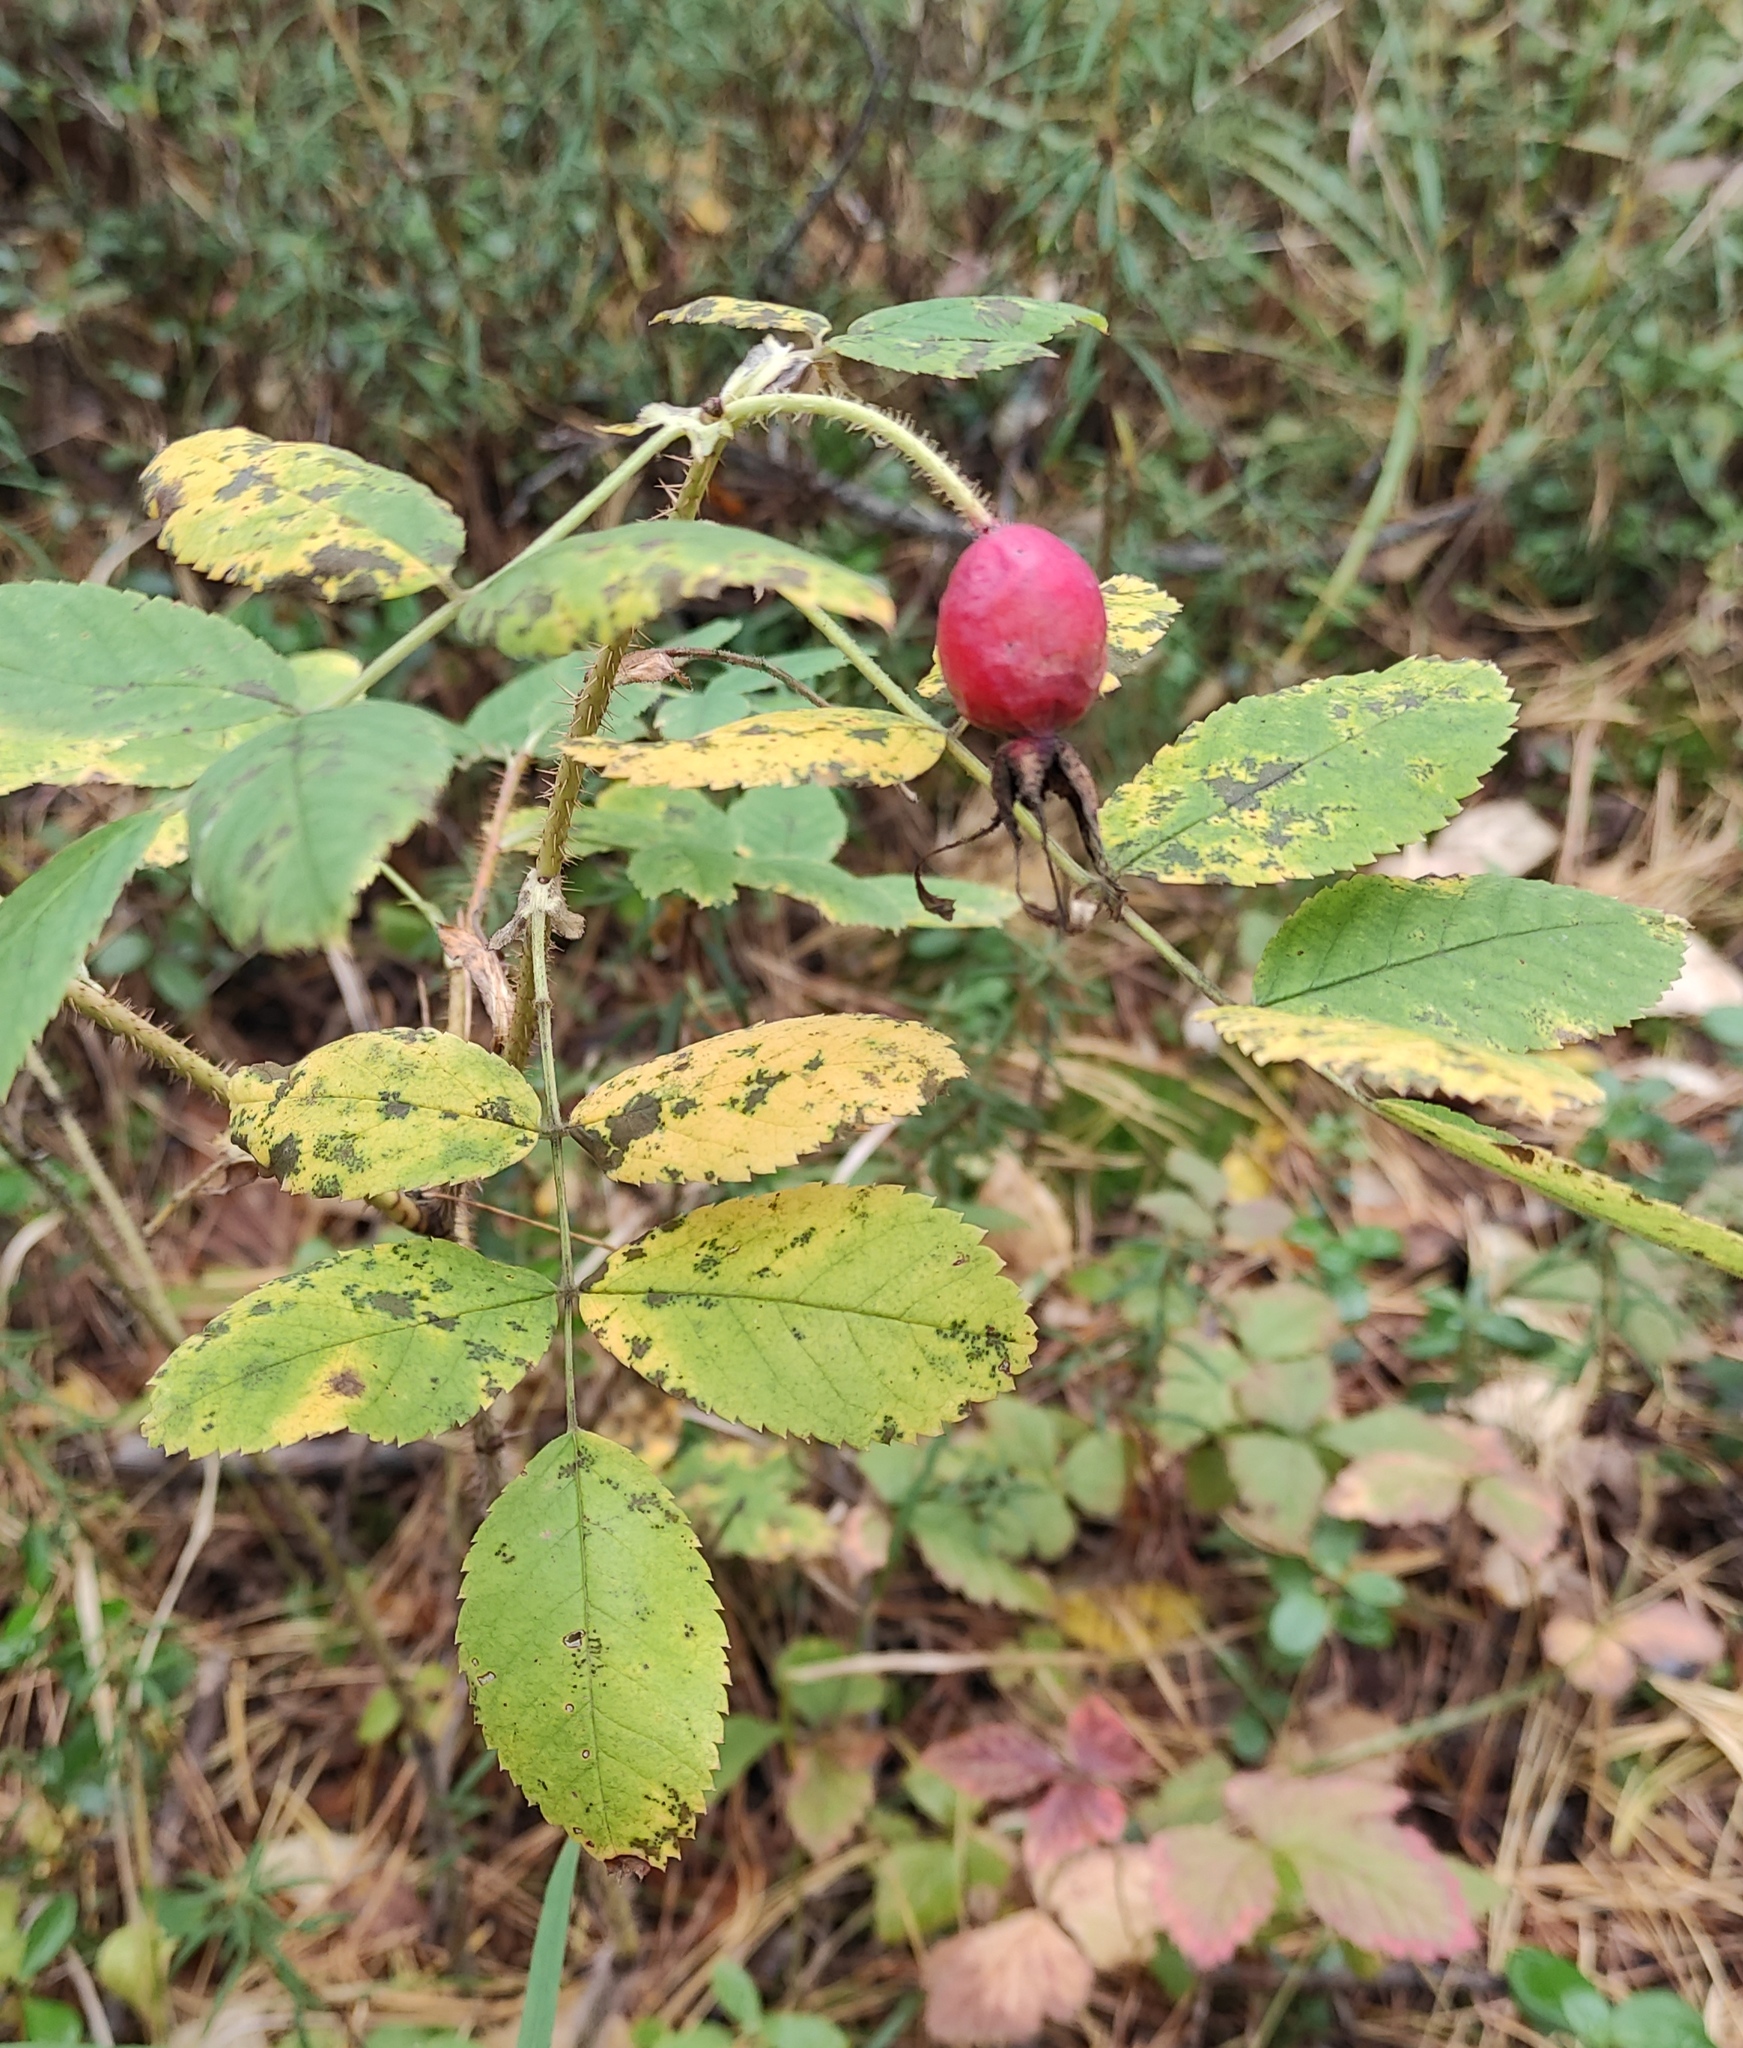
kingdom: Plantae
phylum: Tracheophyta
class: Magnoliopsida
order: Rosales
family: Rosaceae
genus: Rosa
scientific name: Rosa acicularis
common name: Prickly rose
